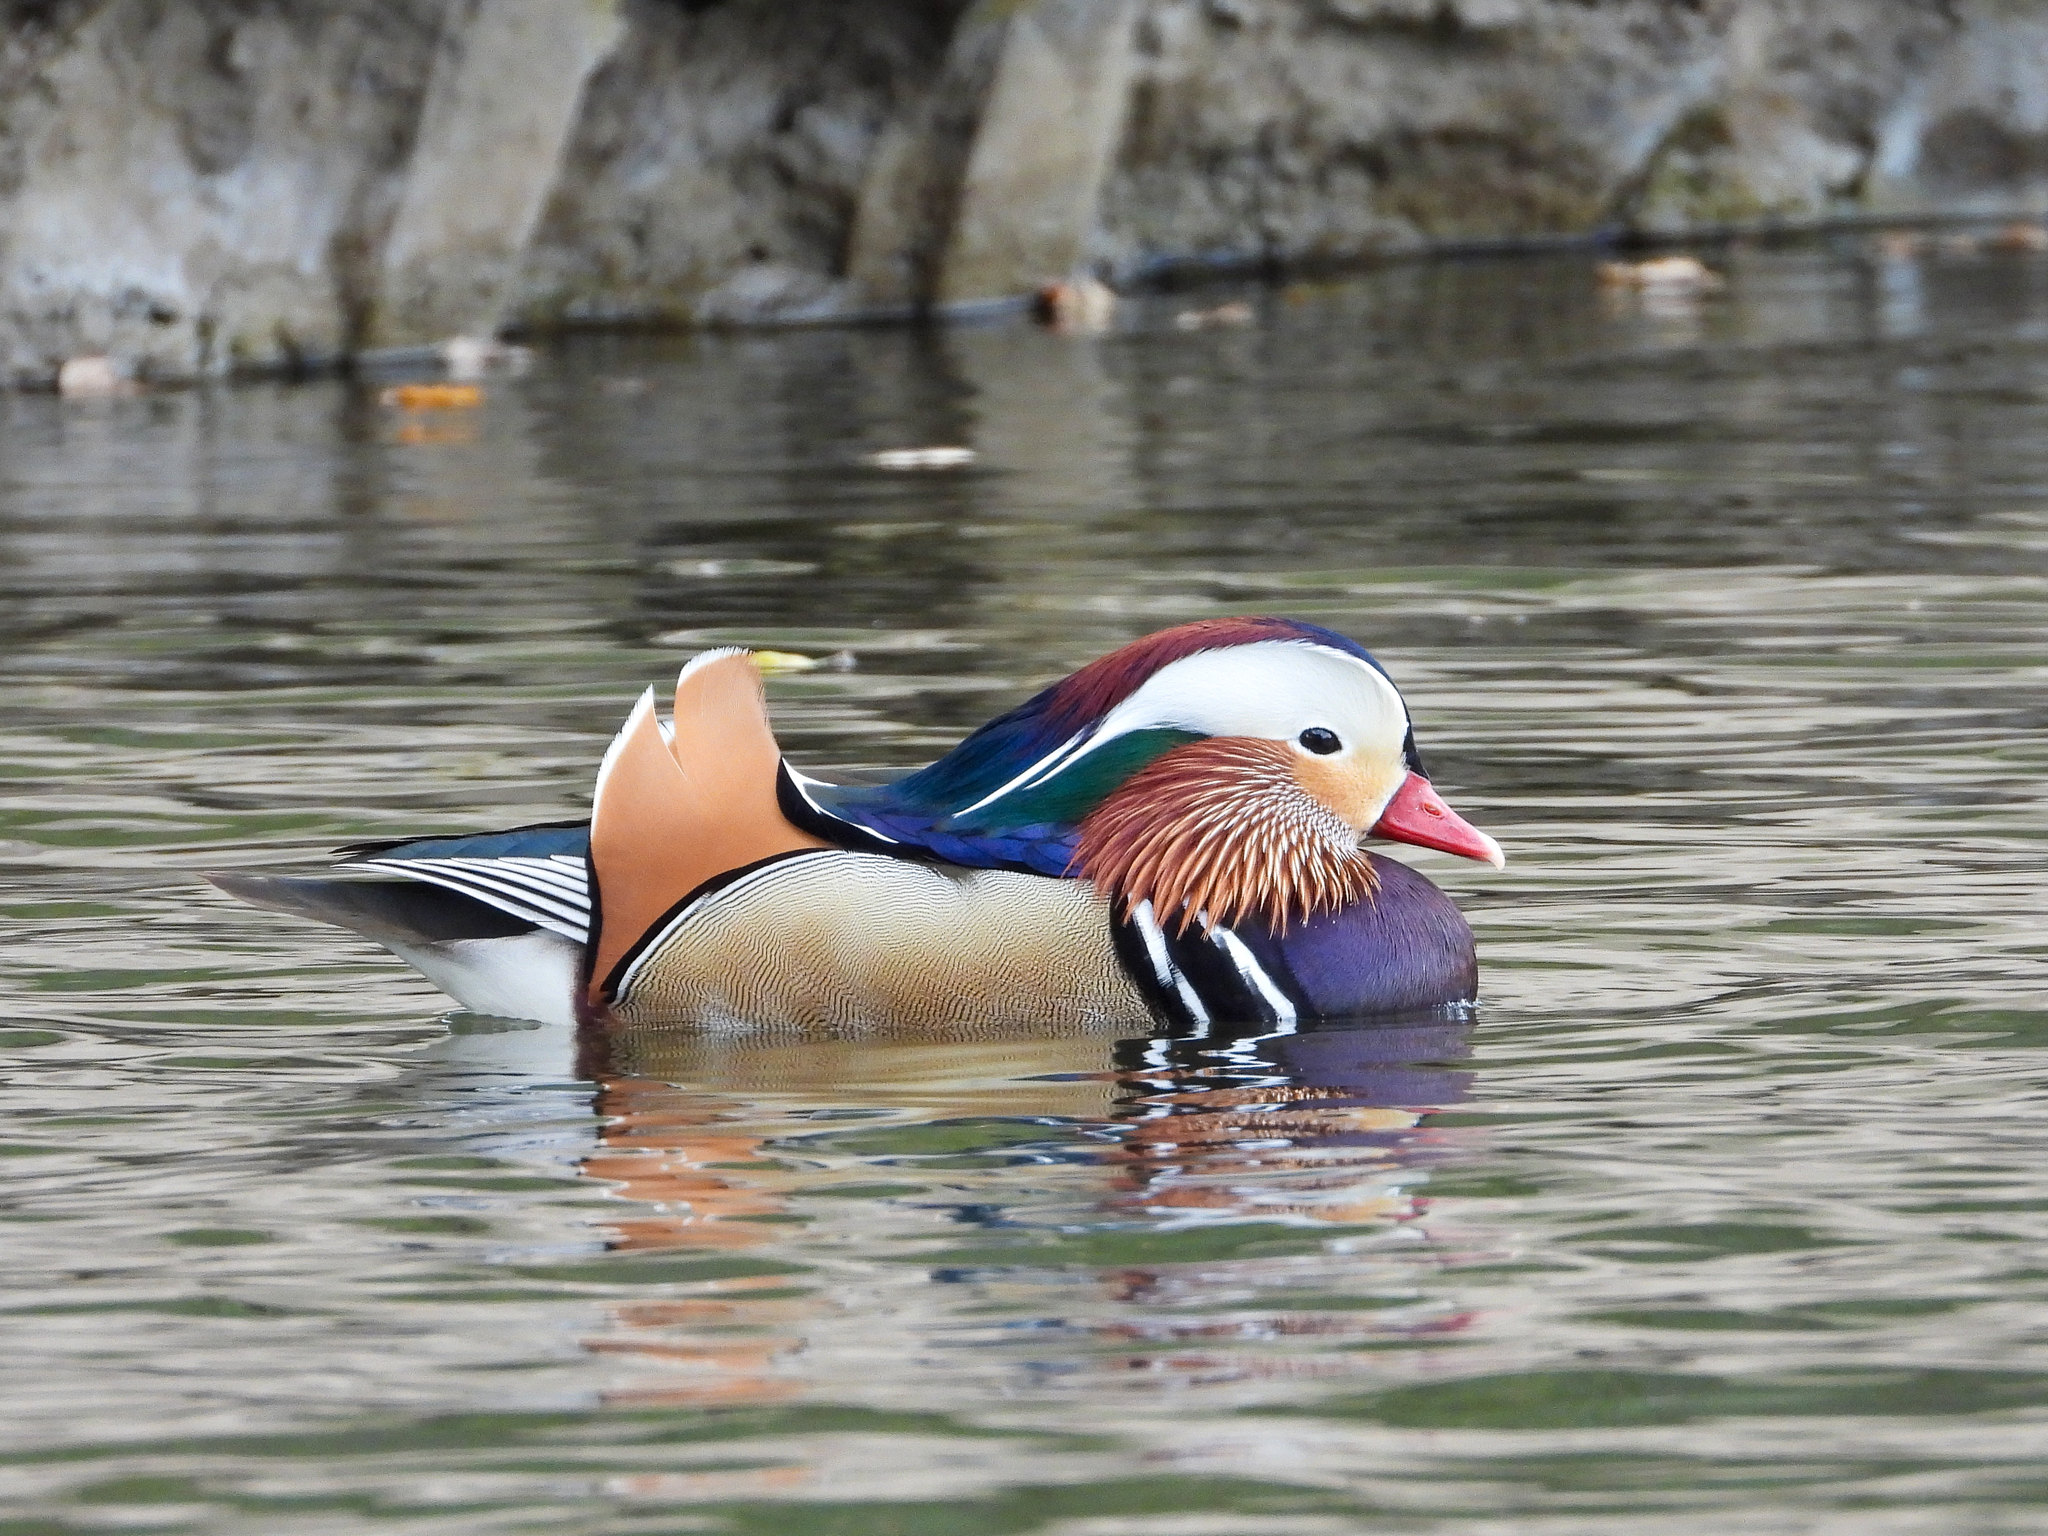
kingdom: Animalia
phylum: Chordata
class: Aves
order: Anseriformes
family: Anatidae
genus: Aix
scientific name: Aix galericulata
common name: Mandarin duck
